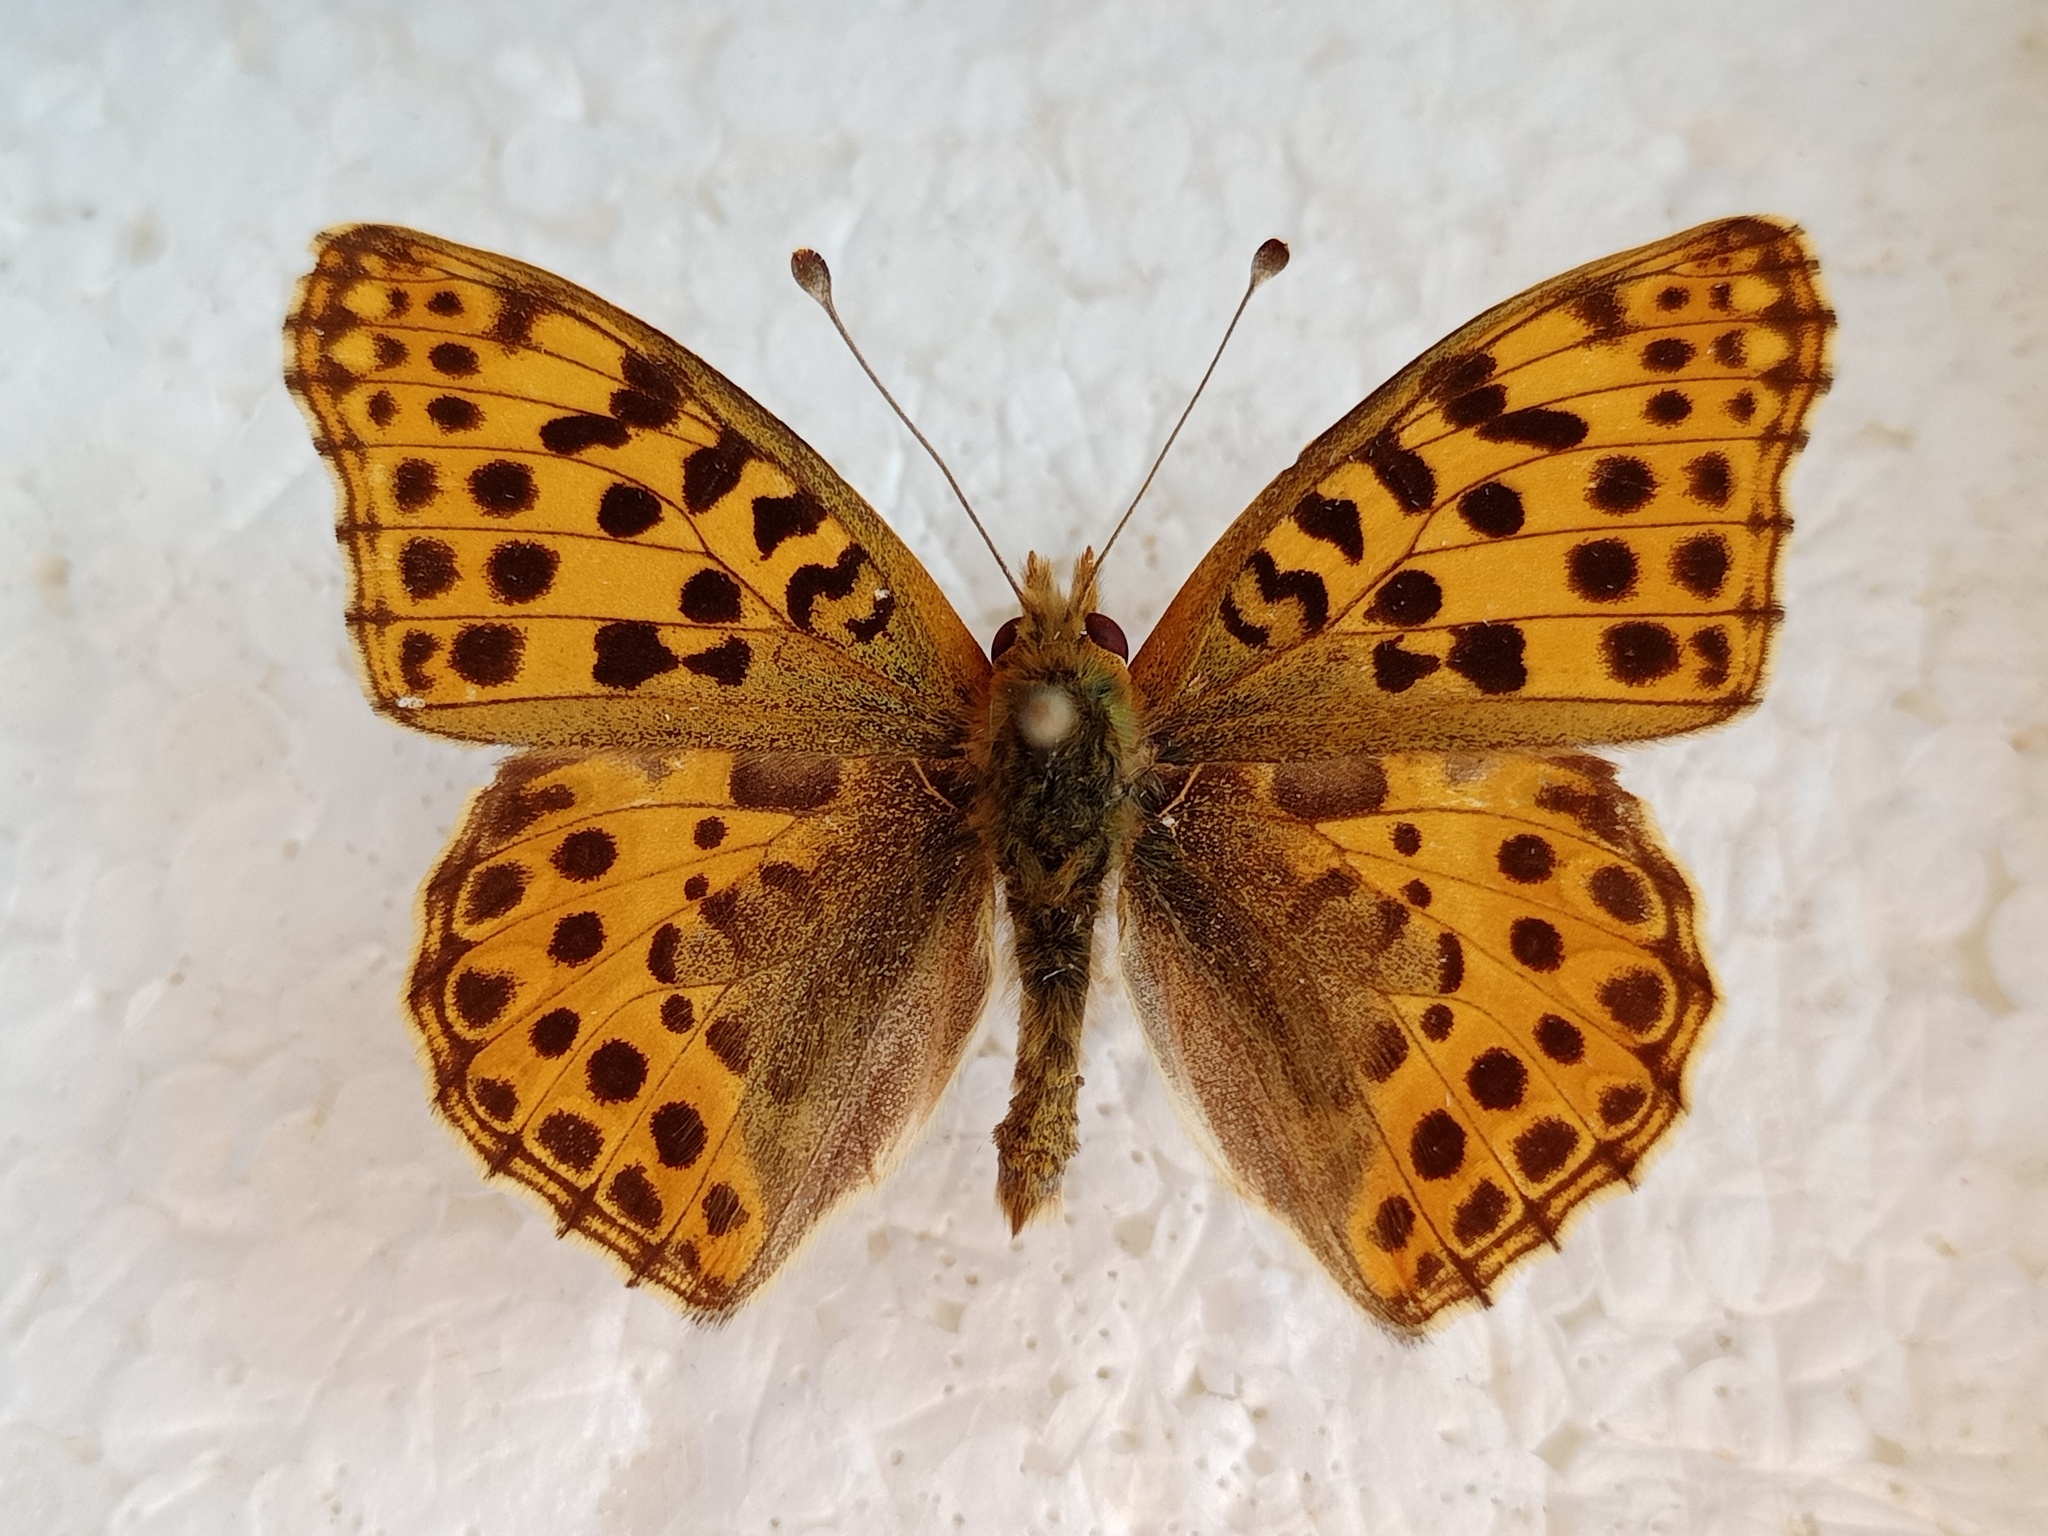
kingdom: Animalia
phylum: Arthropoda
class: Insecta
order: Lepidoptera
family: Nymphalidae
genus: Issoria
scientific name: Issoria lathonia
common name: Queen of spain fritillary
